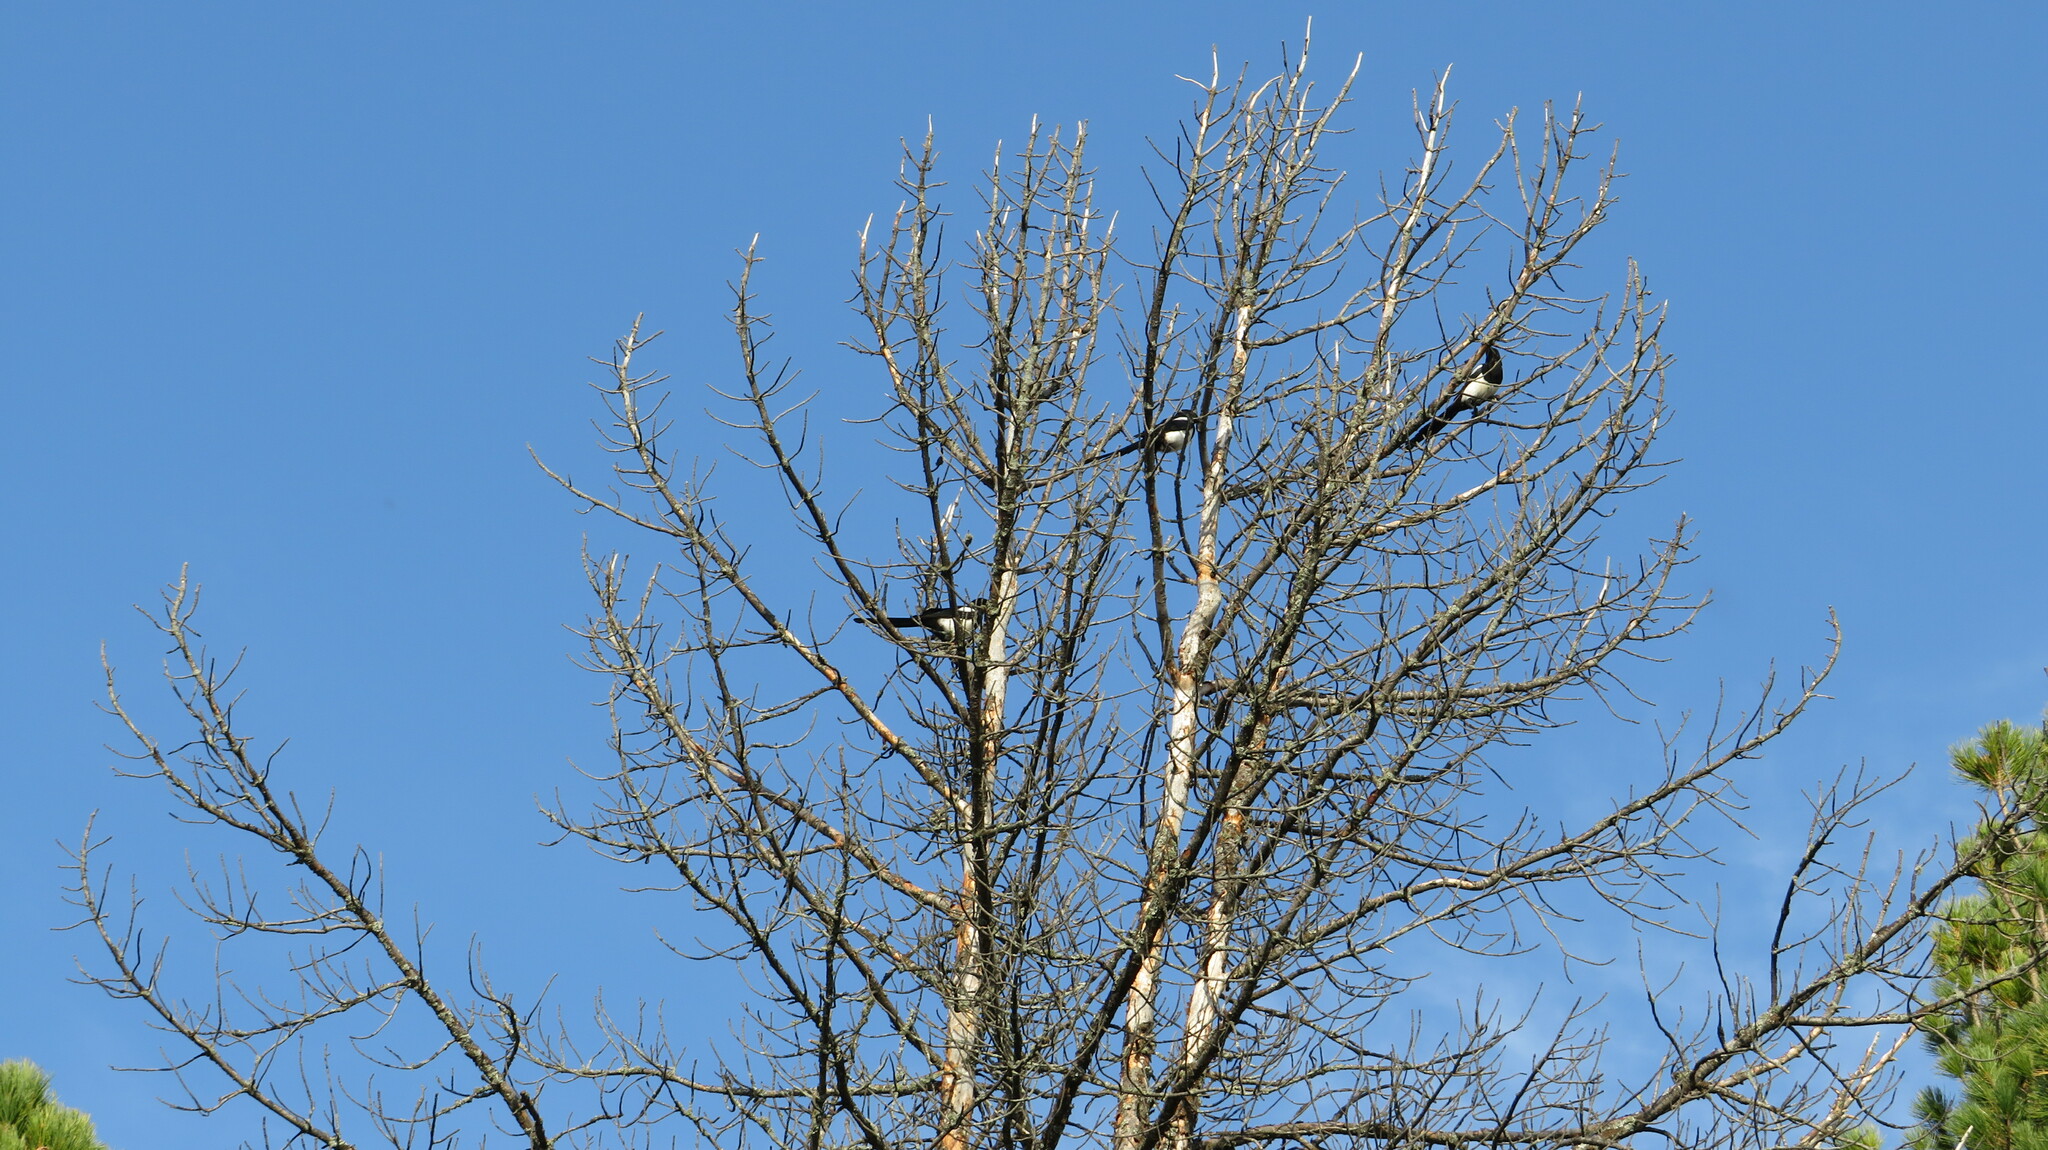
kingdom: Animalia
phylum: Chordata
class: Aves
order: Passeriformes
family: Corvidae
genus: Pica
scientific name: Pica pica
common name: Eurasian magpie
